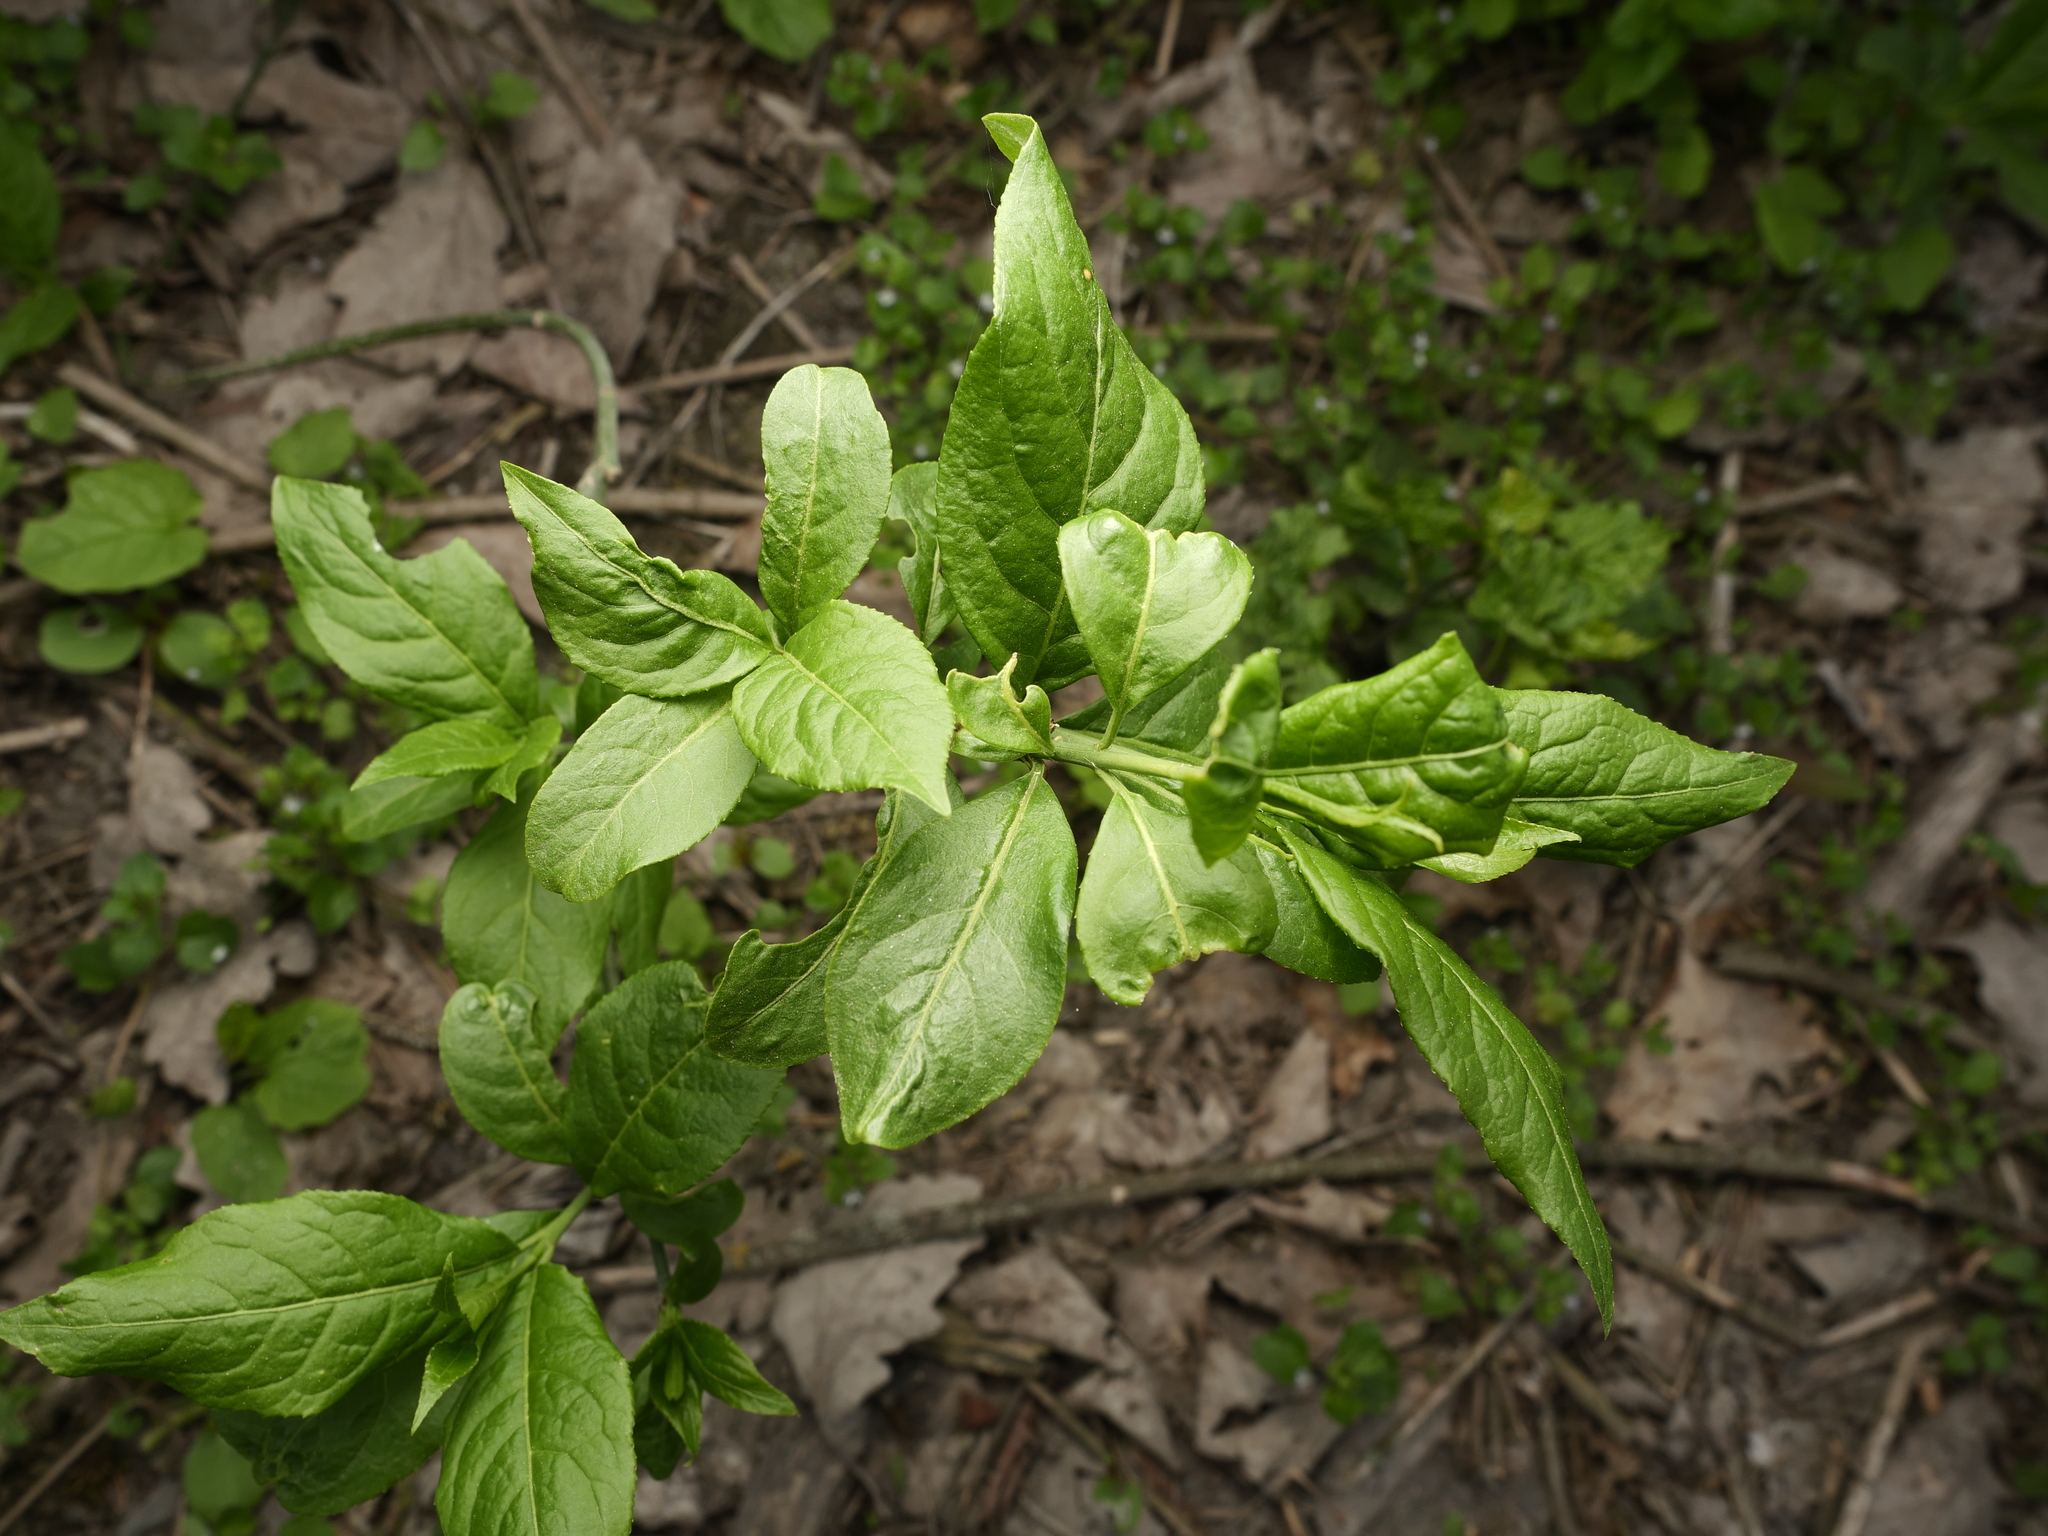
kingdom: Plantae
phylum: Tracheophyta
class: Magnoliopsida
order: Celastrales
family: Celastraceae
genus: Euonymus
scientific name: Euonymus europaeus
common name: Spindle
